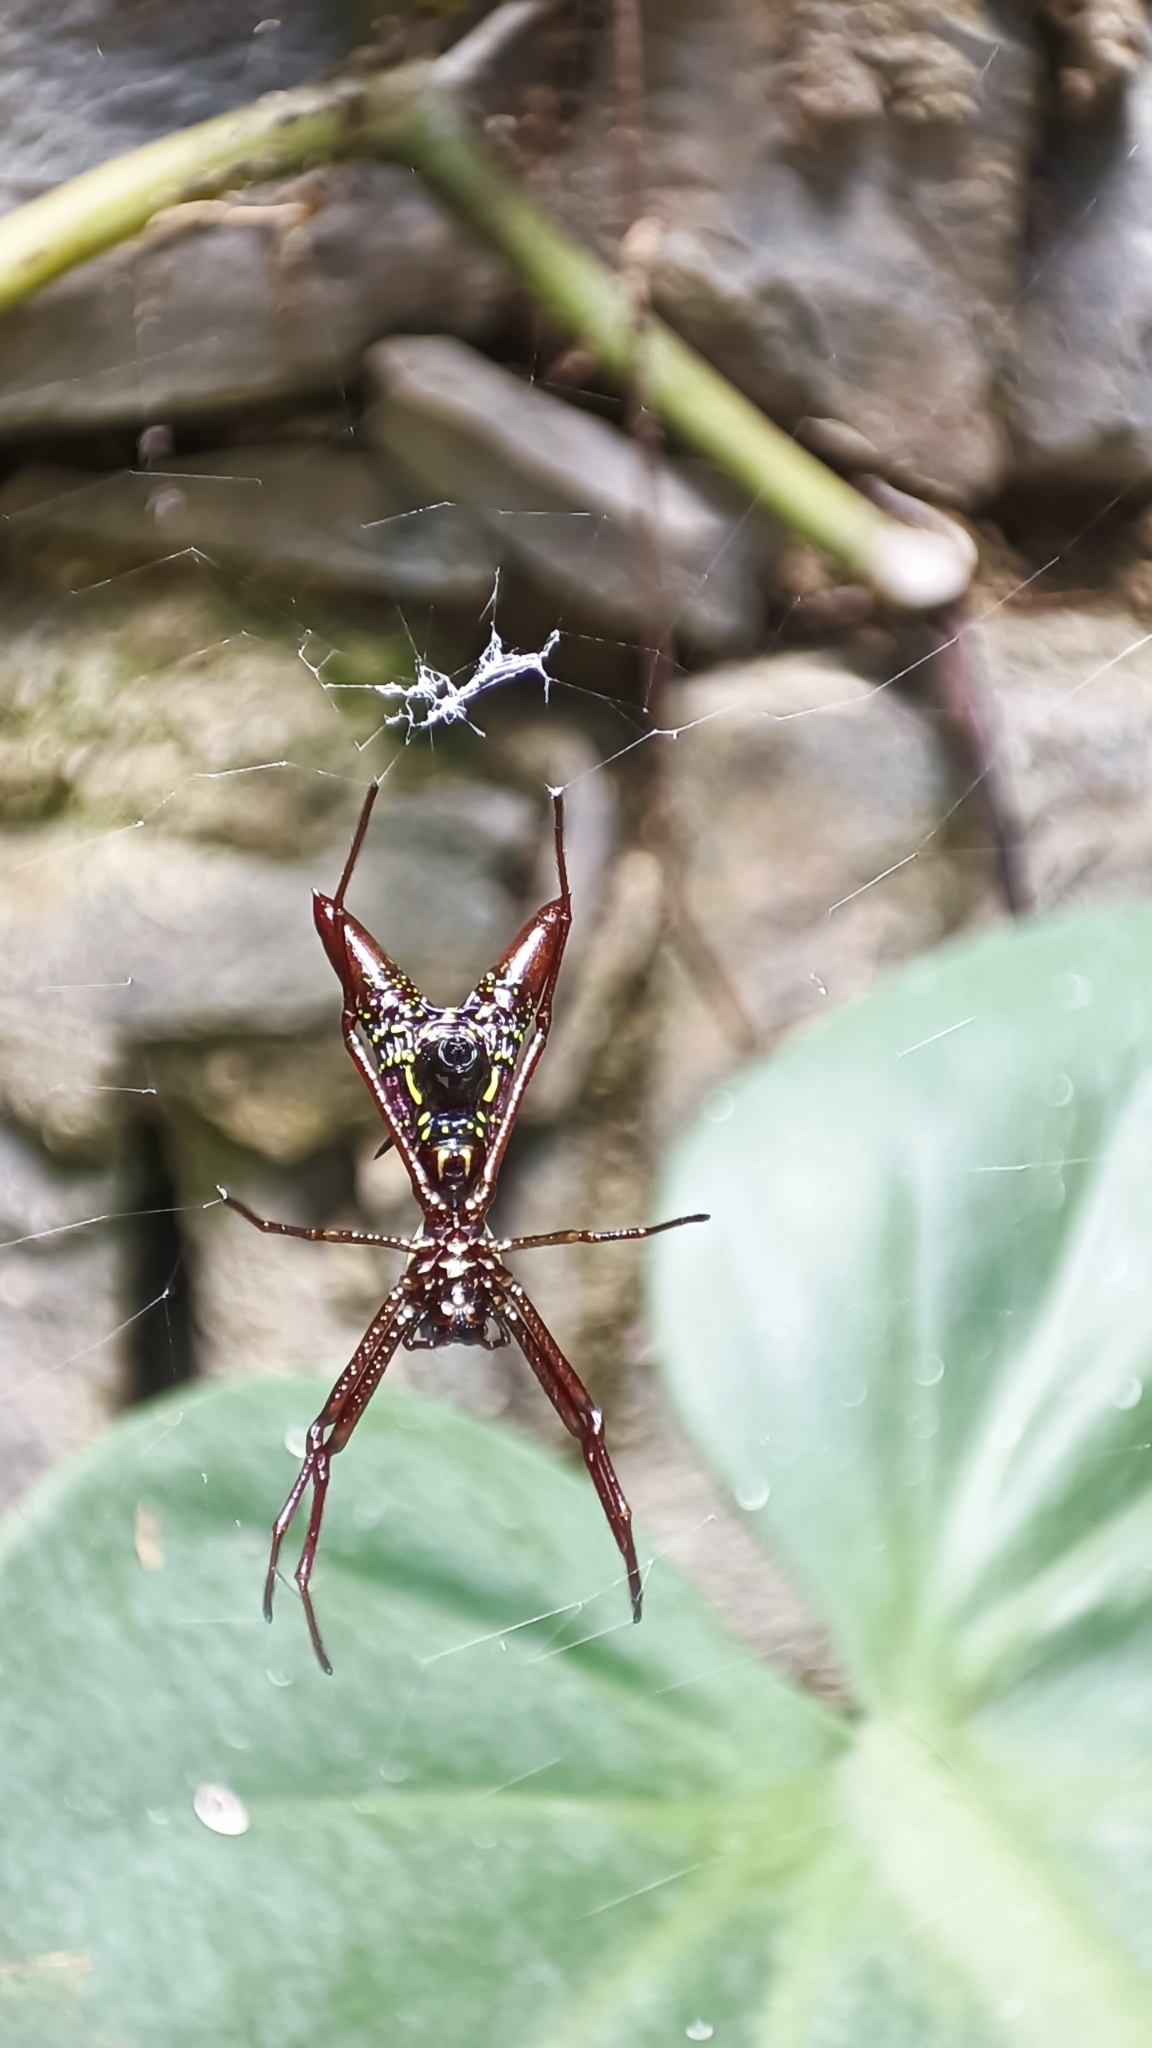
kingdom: Animalia
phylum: Arthropoda
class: Arachnida
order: Araneae
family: Araneidae
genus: Micrathena
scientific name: Micrathena sexspinosa
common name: Orb weavers
